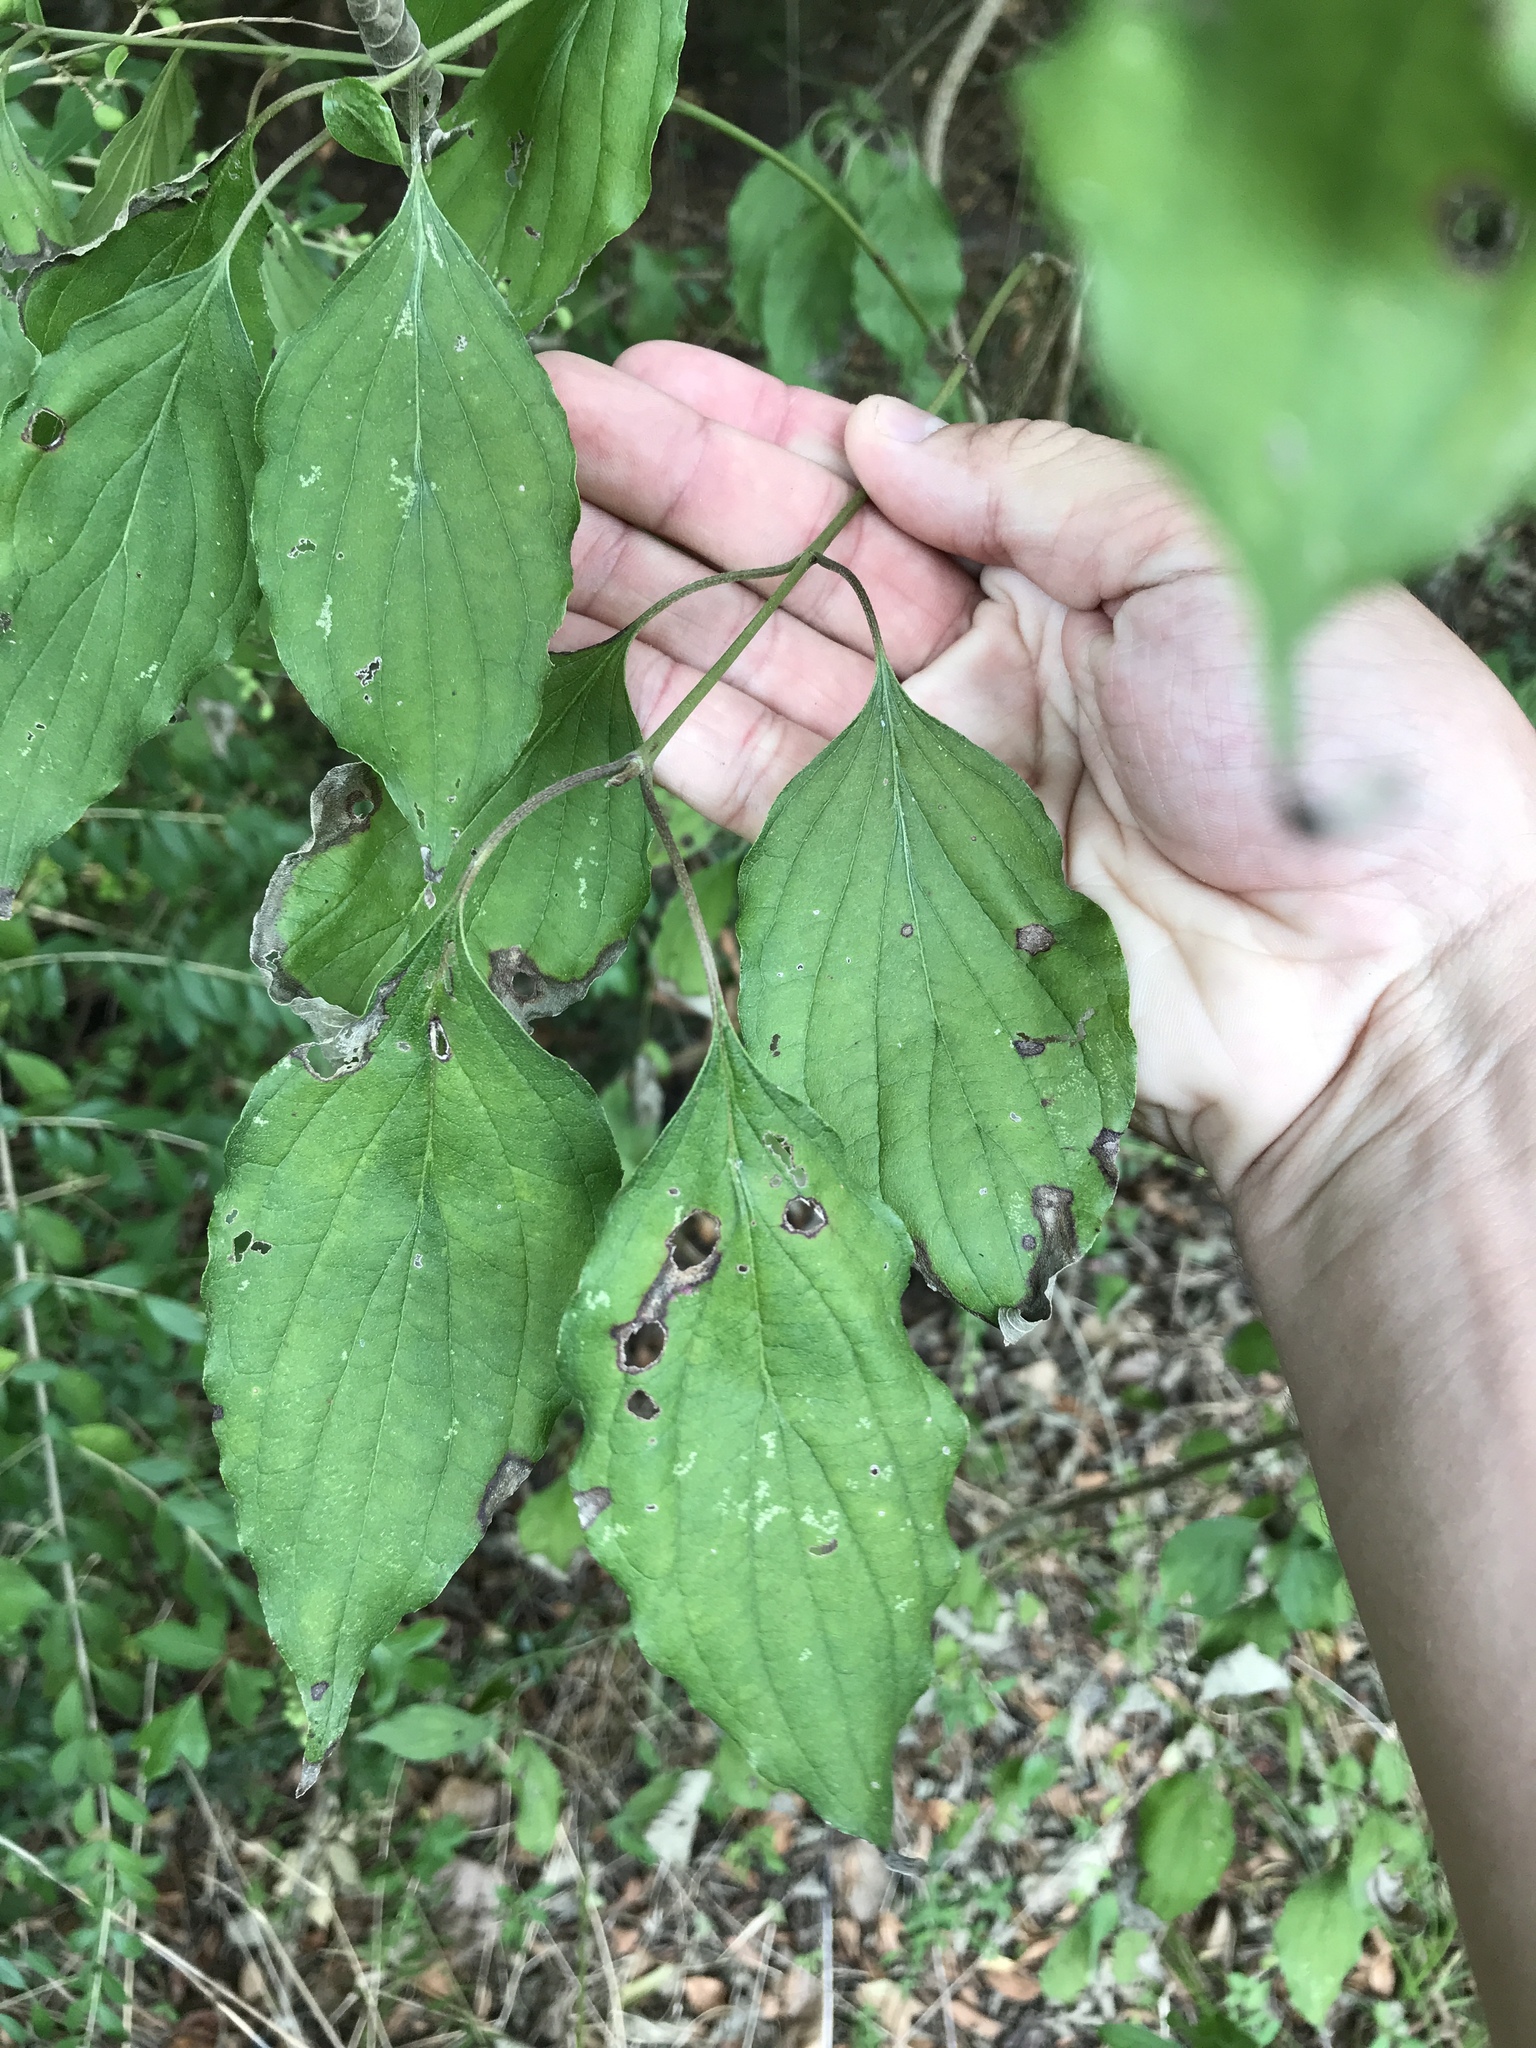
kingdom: Plantae
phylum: Tracheophyta
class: Magnoliopsida
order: Cornales
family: Cornaceae
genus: Cornus
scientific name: Cornus drummondii
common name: Rough-leaf dogwood
